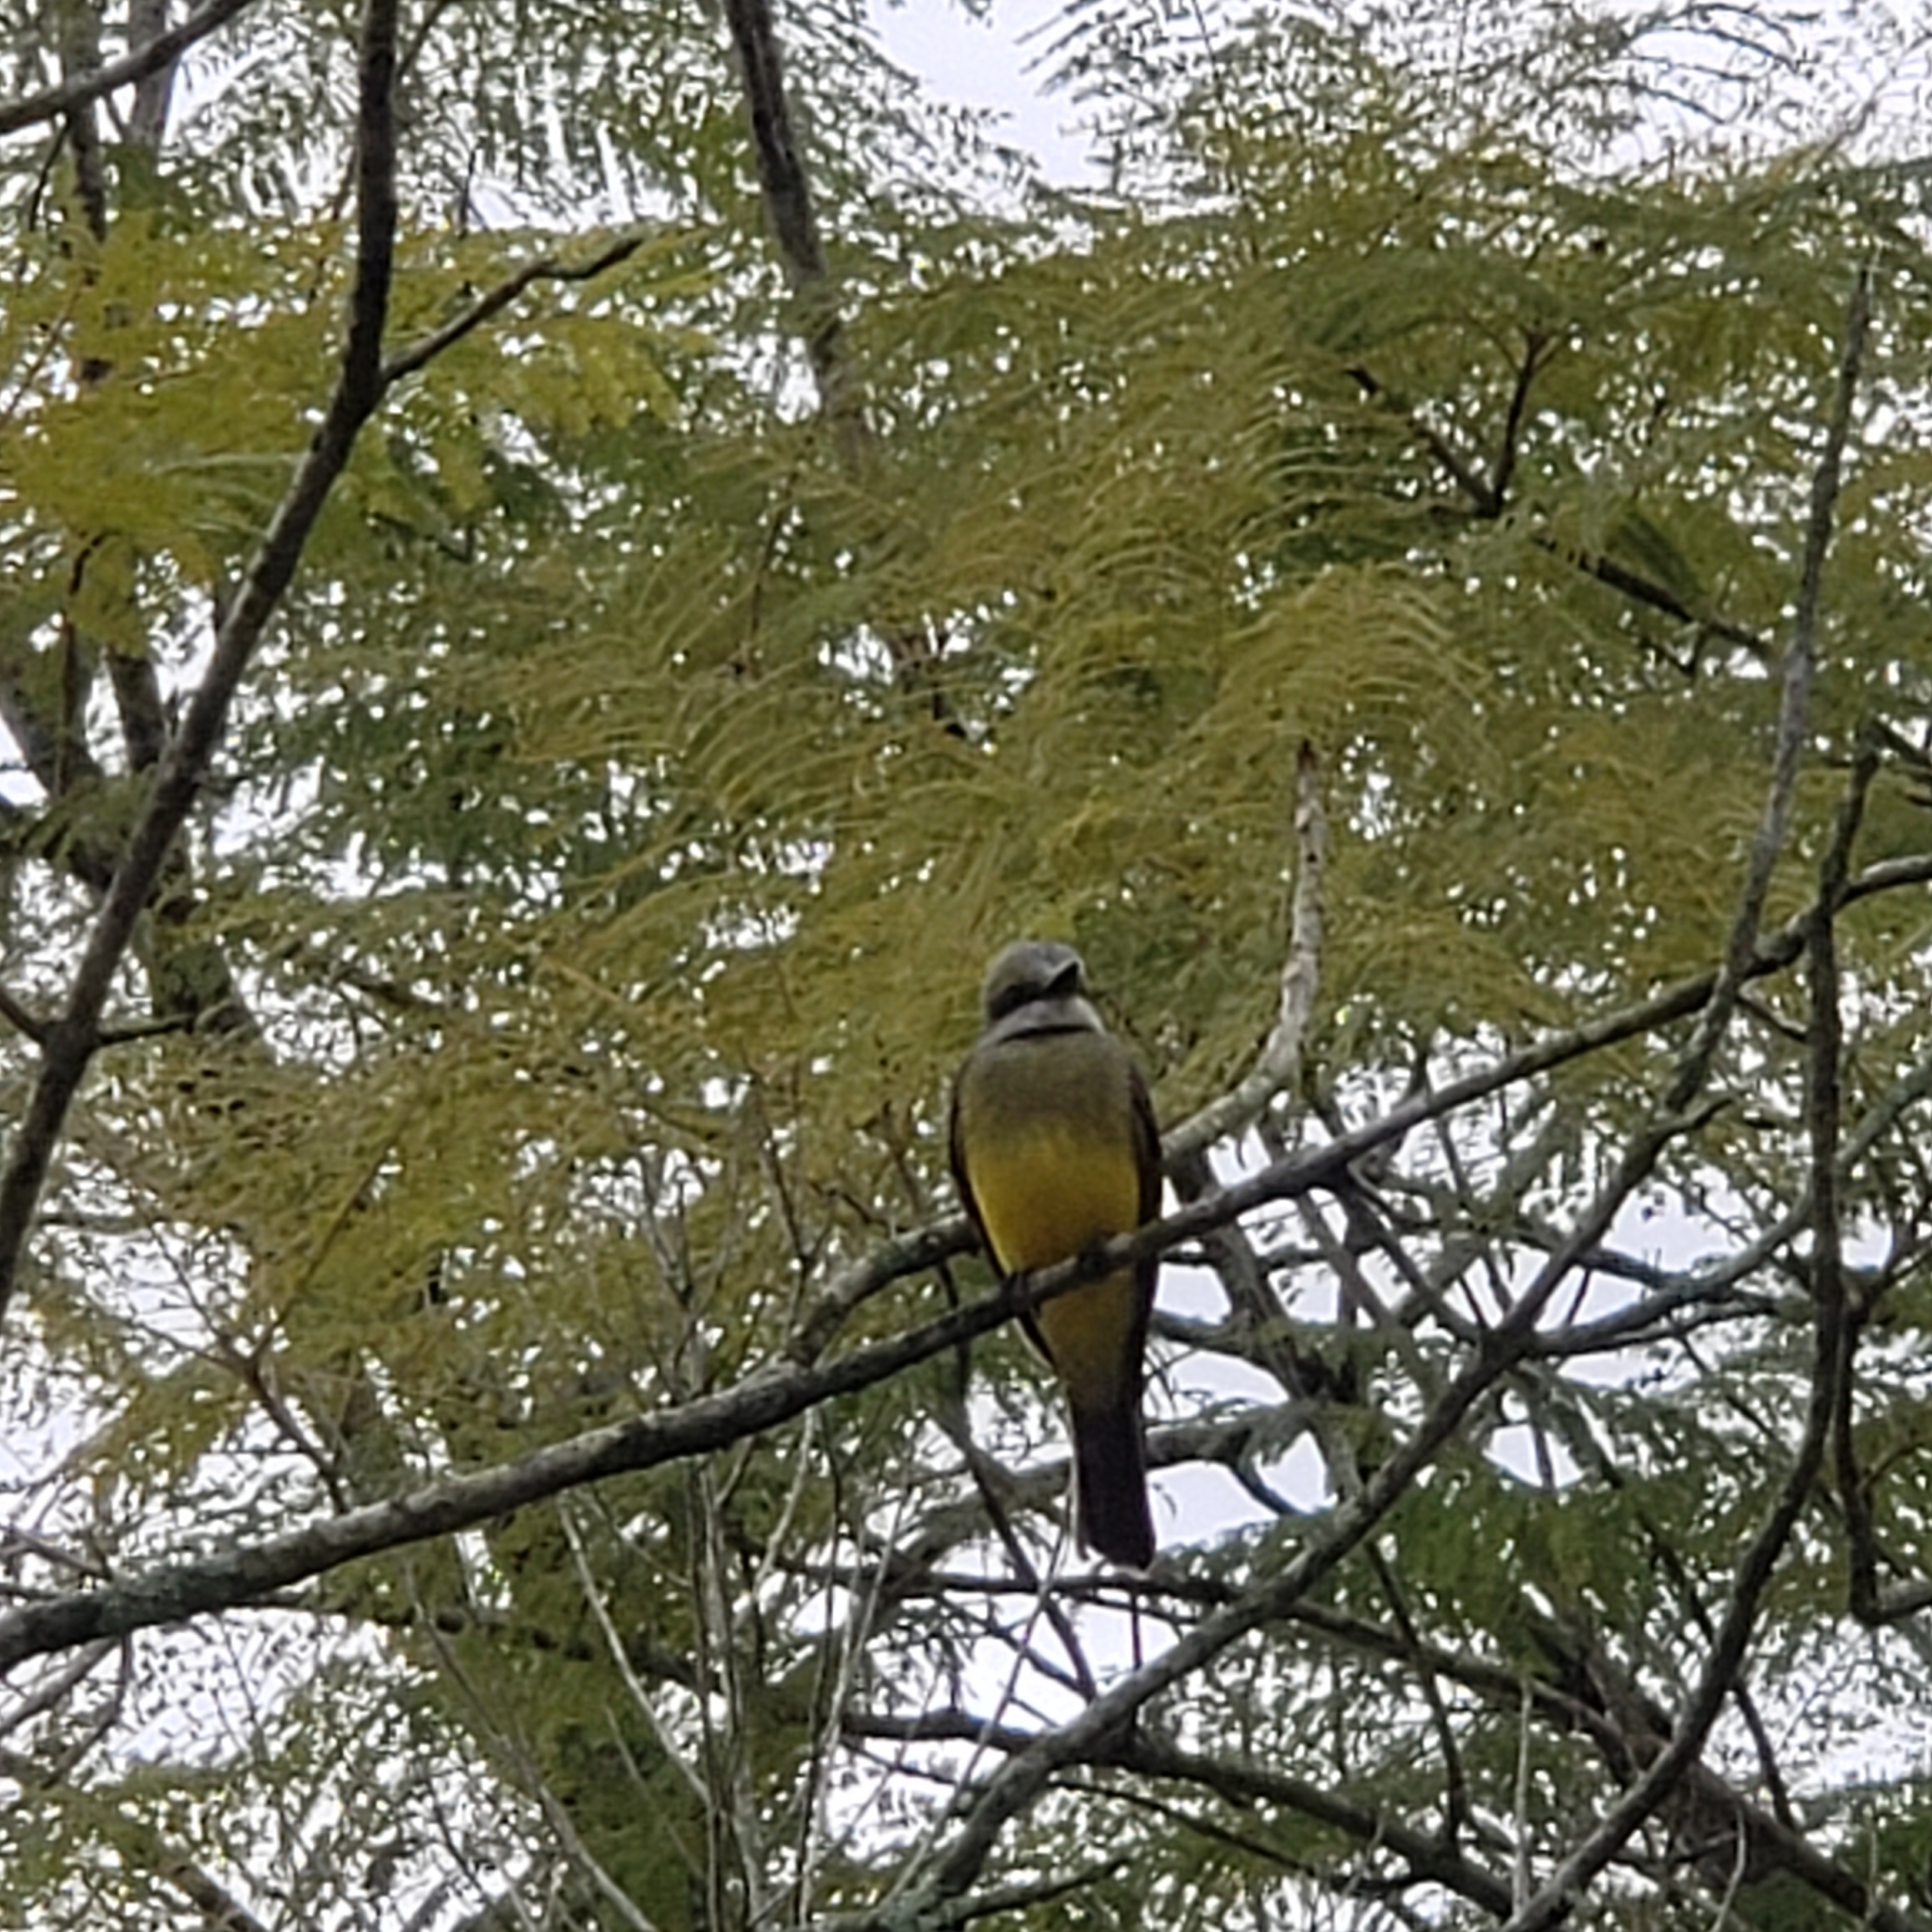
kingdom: Animalia
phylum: Chordata
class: Aves
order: Passeriformes
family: Tyrannidae
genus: Tyrannus
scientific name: Tyrannus melancholicus
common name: Tropical kingbird
